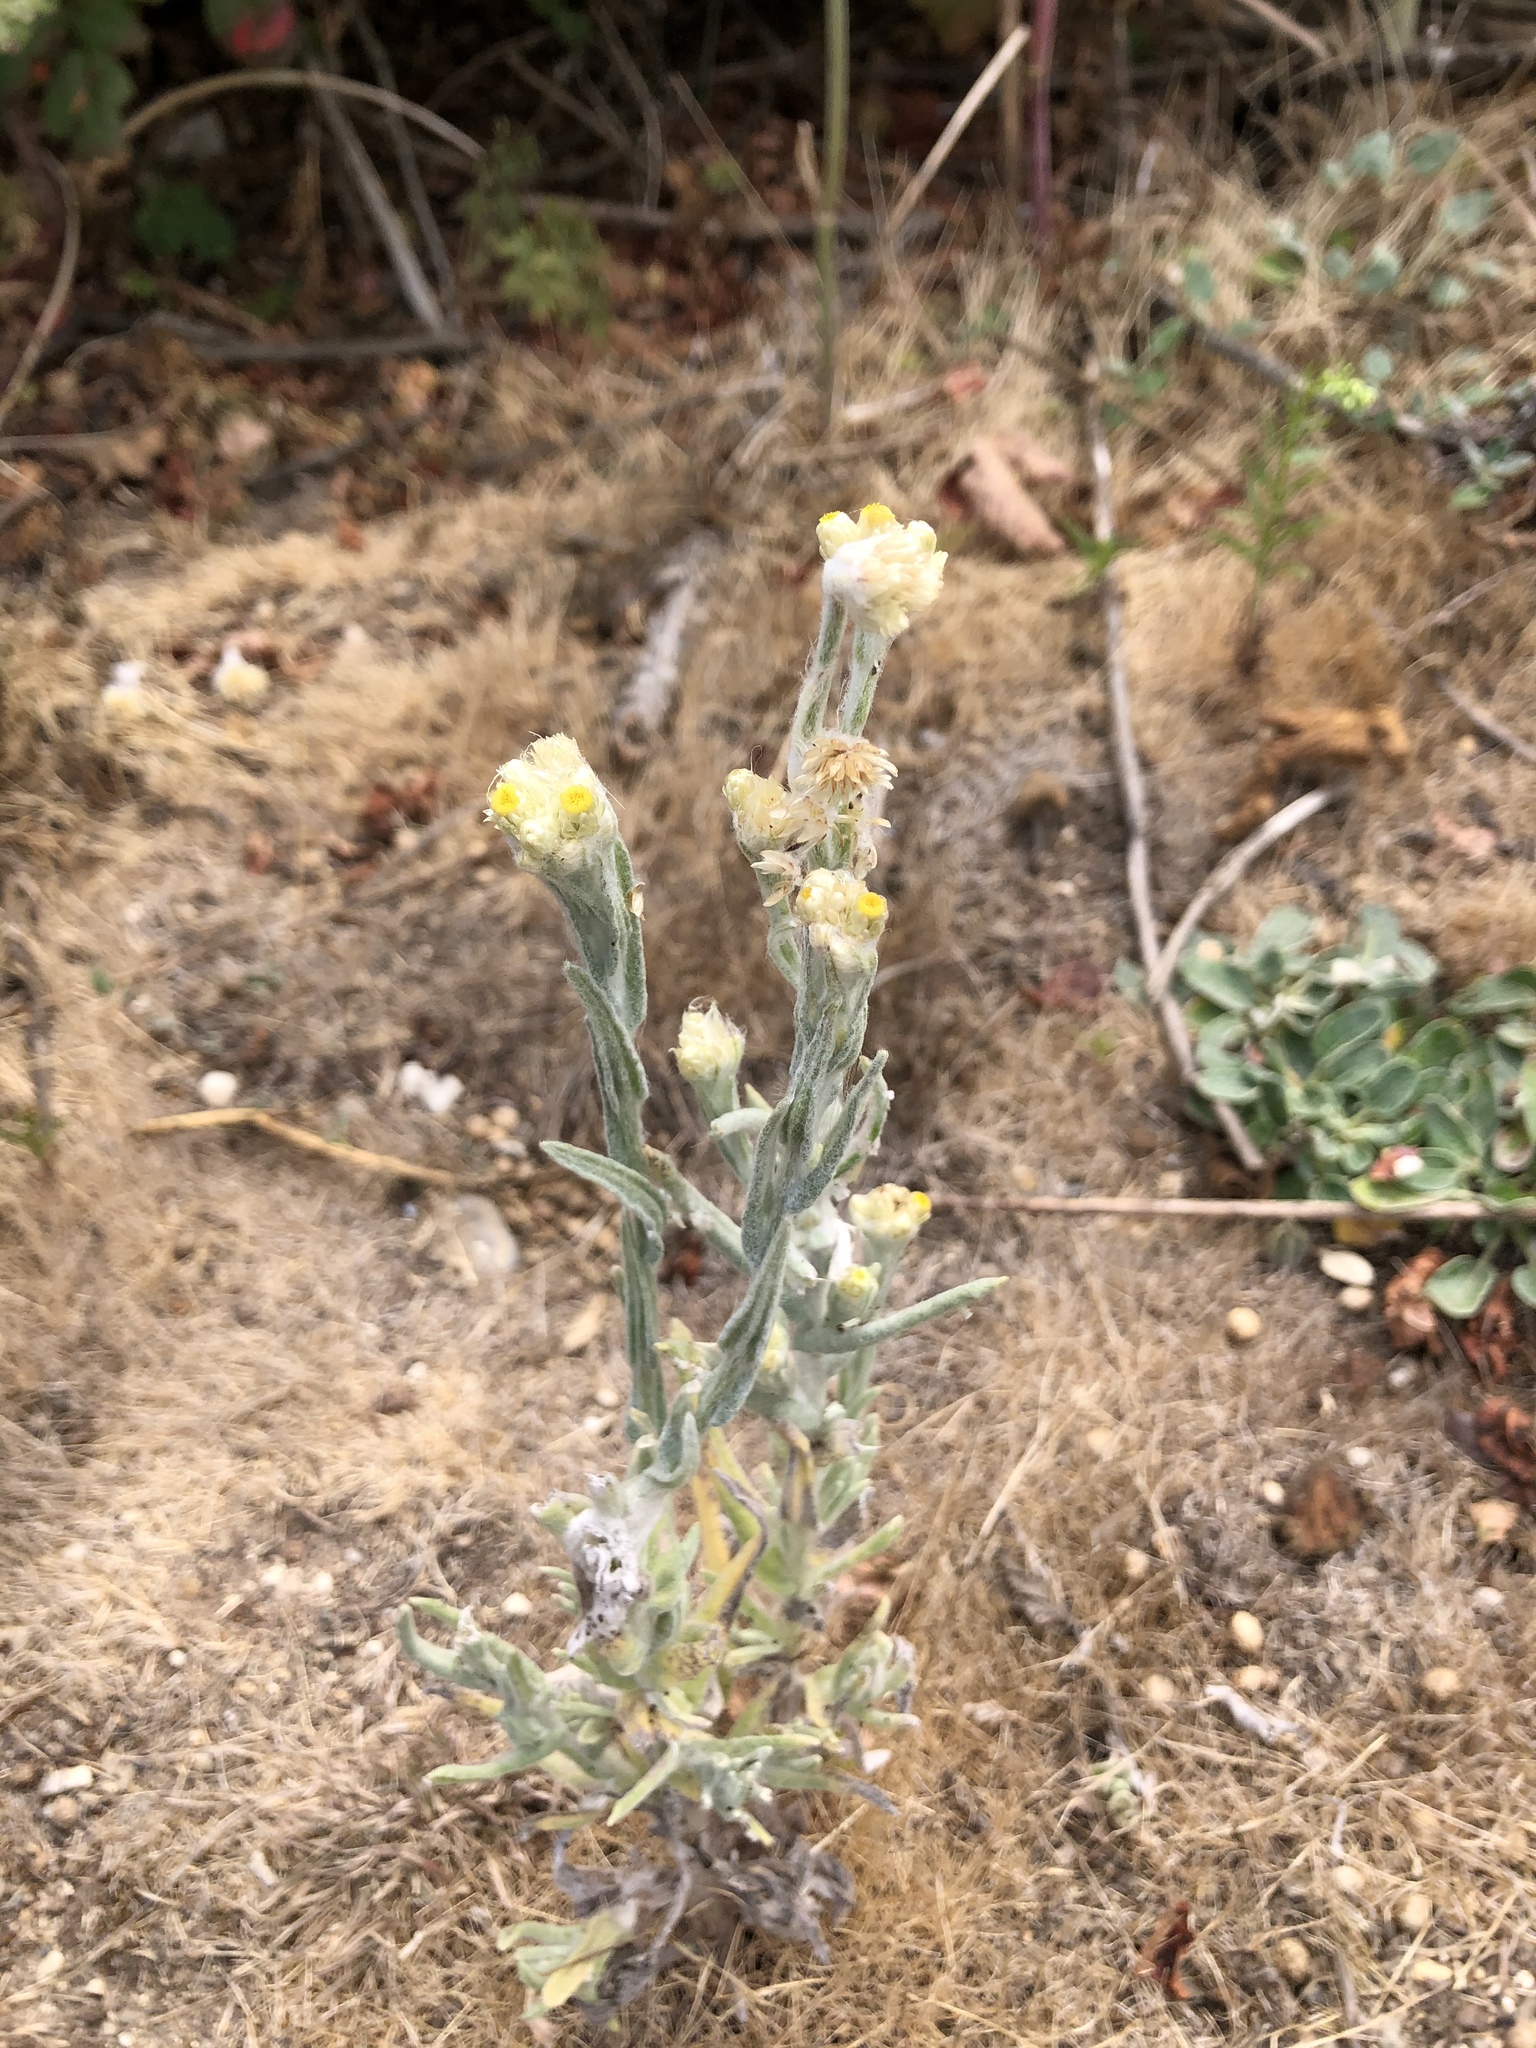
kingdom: Plantae
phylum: Tracheophyta
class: Magnoliopsida
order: Asterales
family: Asteraceae
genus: Pseudognaphalium
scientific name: Pseudognaphalium stramineum
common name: Cotton-batting-plant
